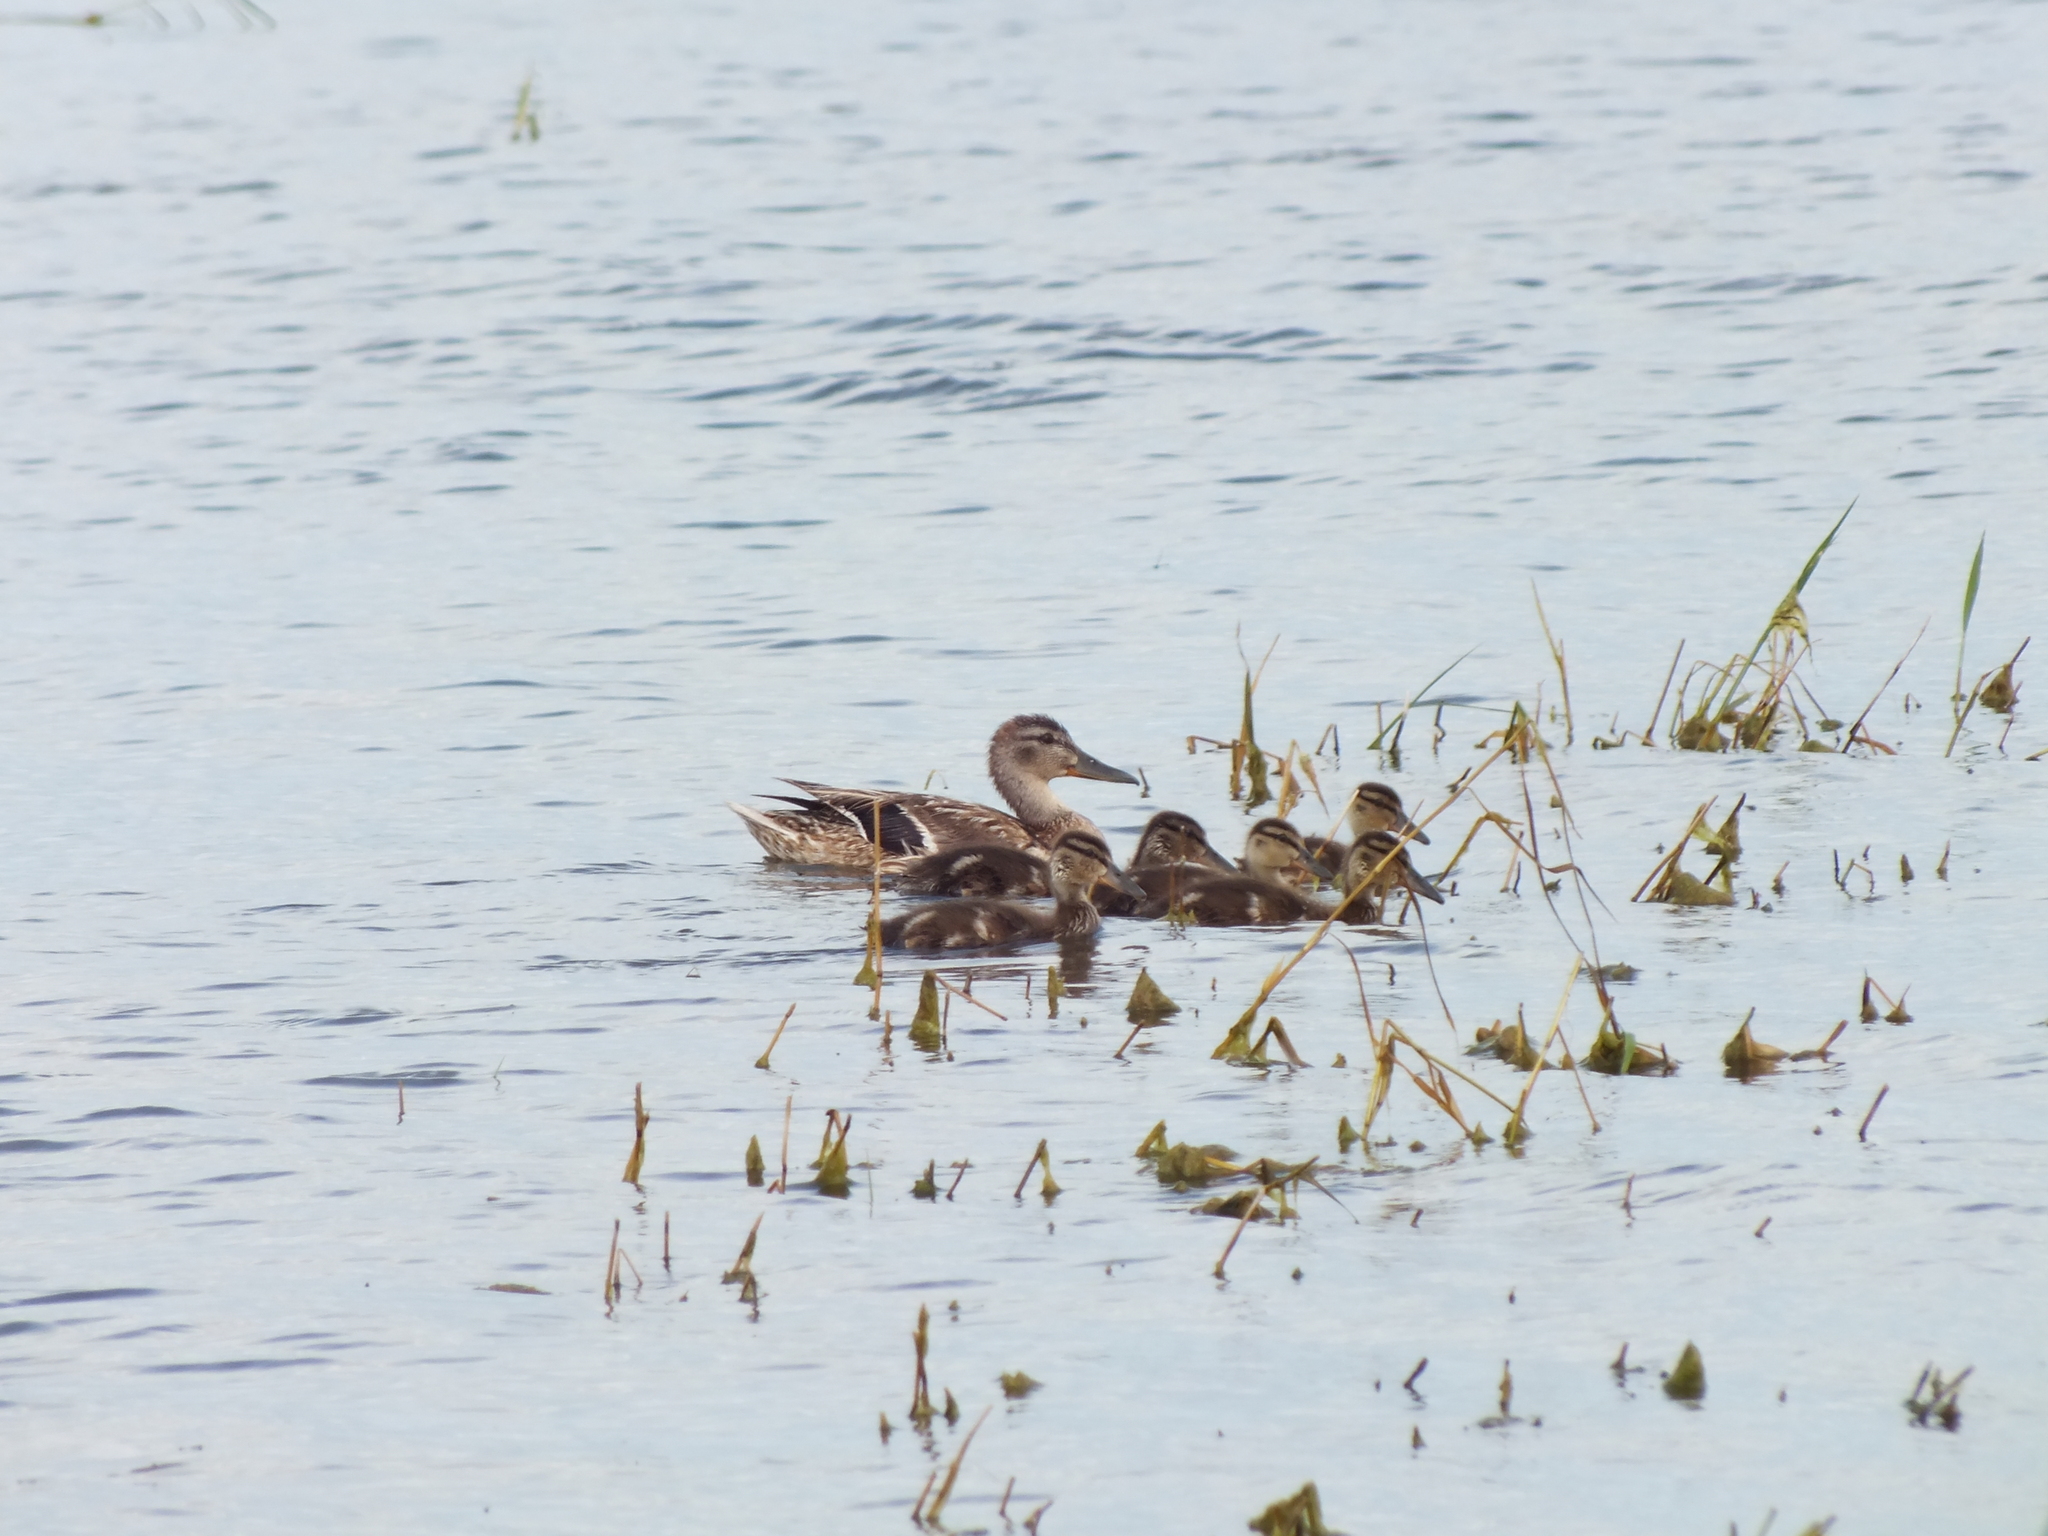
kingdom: Animalia
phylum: Chordata
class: Aves
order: Anseriformes
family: Anatidae
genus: Anas
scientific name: Anas platyrhynchos
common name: Mallard
